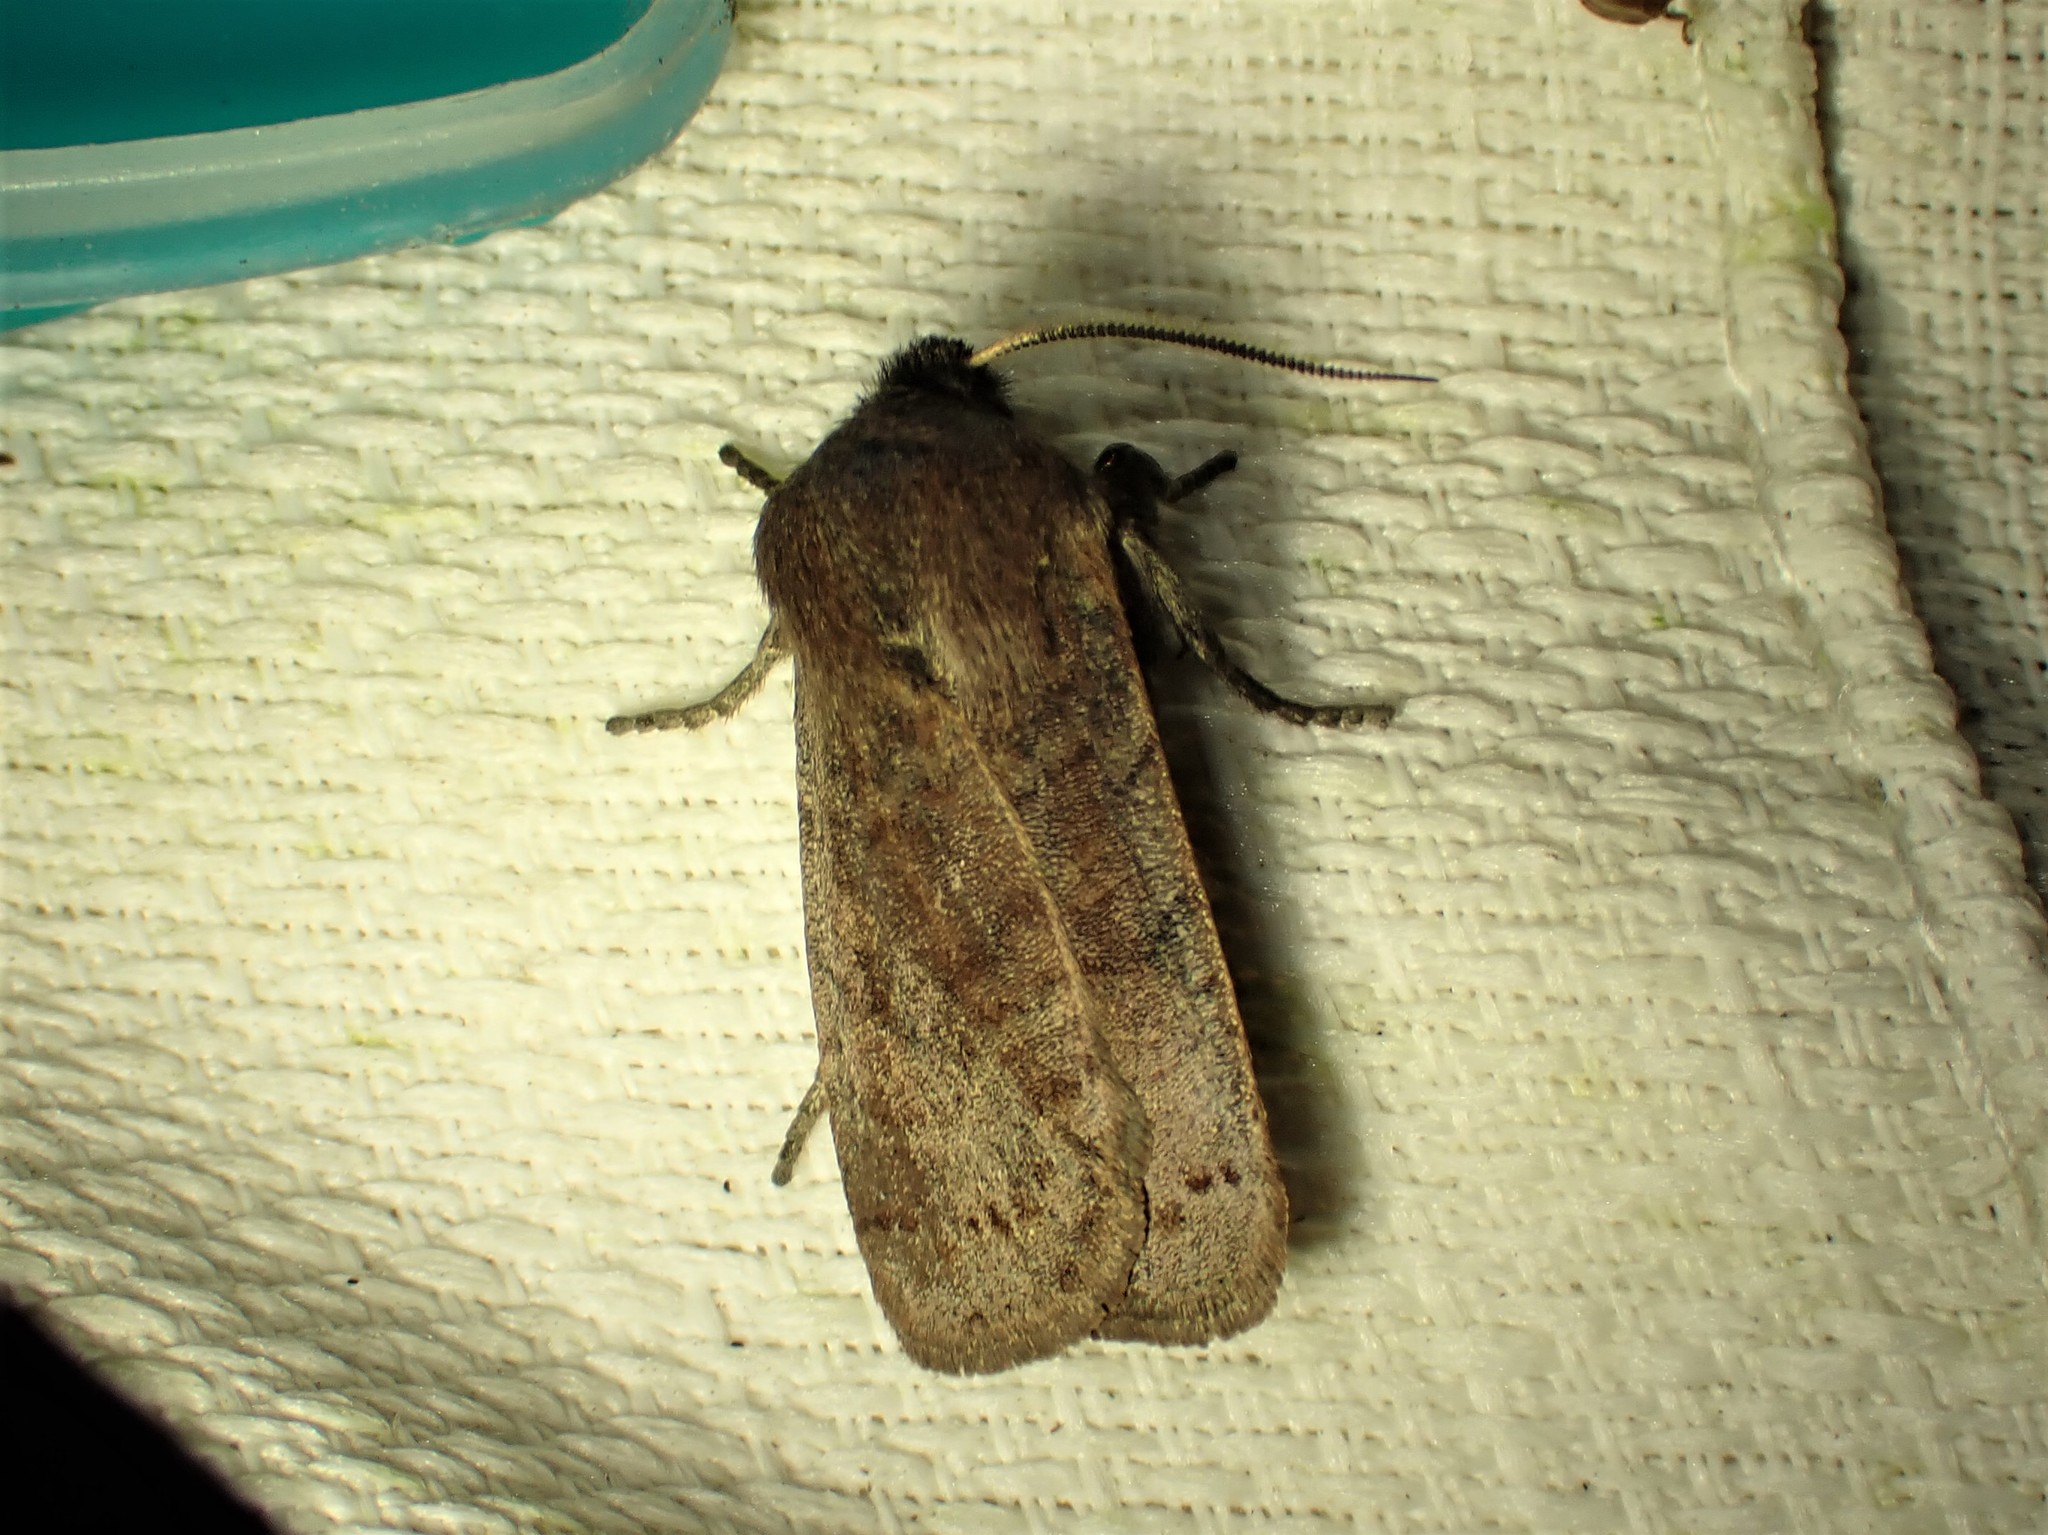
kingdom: Animalia
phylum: Arthropoda
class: Insecta
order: Lepidoptera
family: Noctuidae
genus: Homoglaea
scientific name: Homoglaea hircina
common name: Goat sallow
